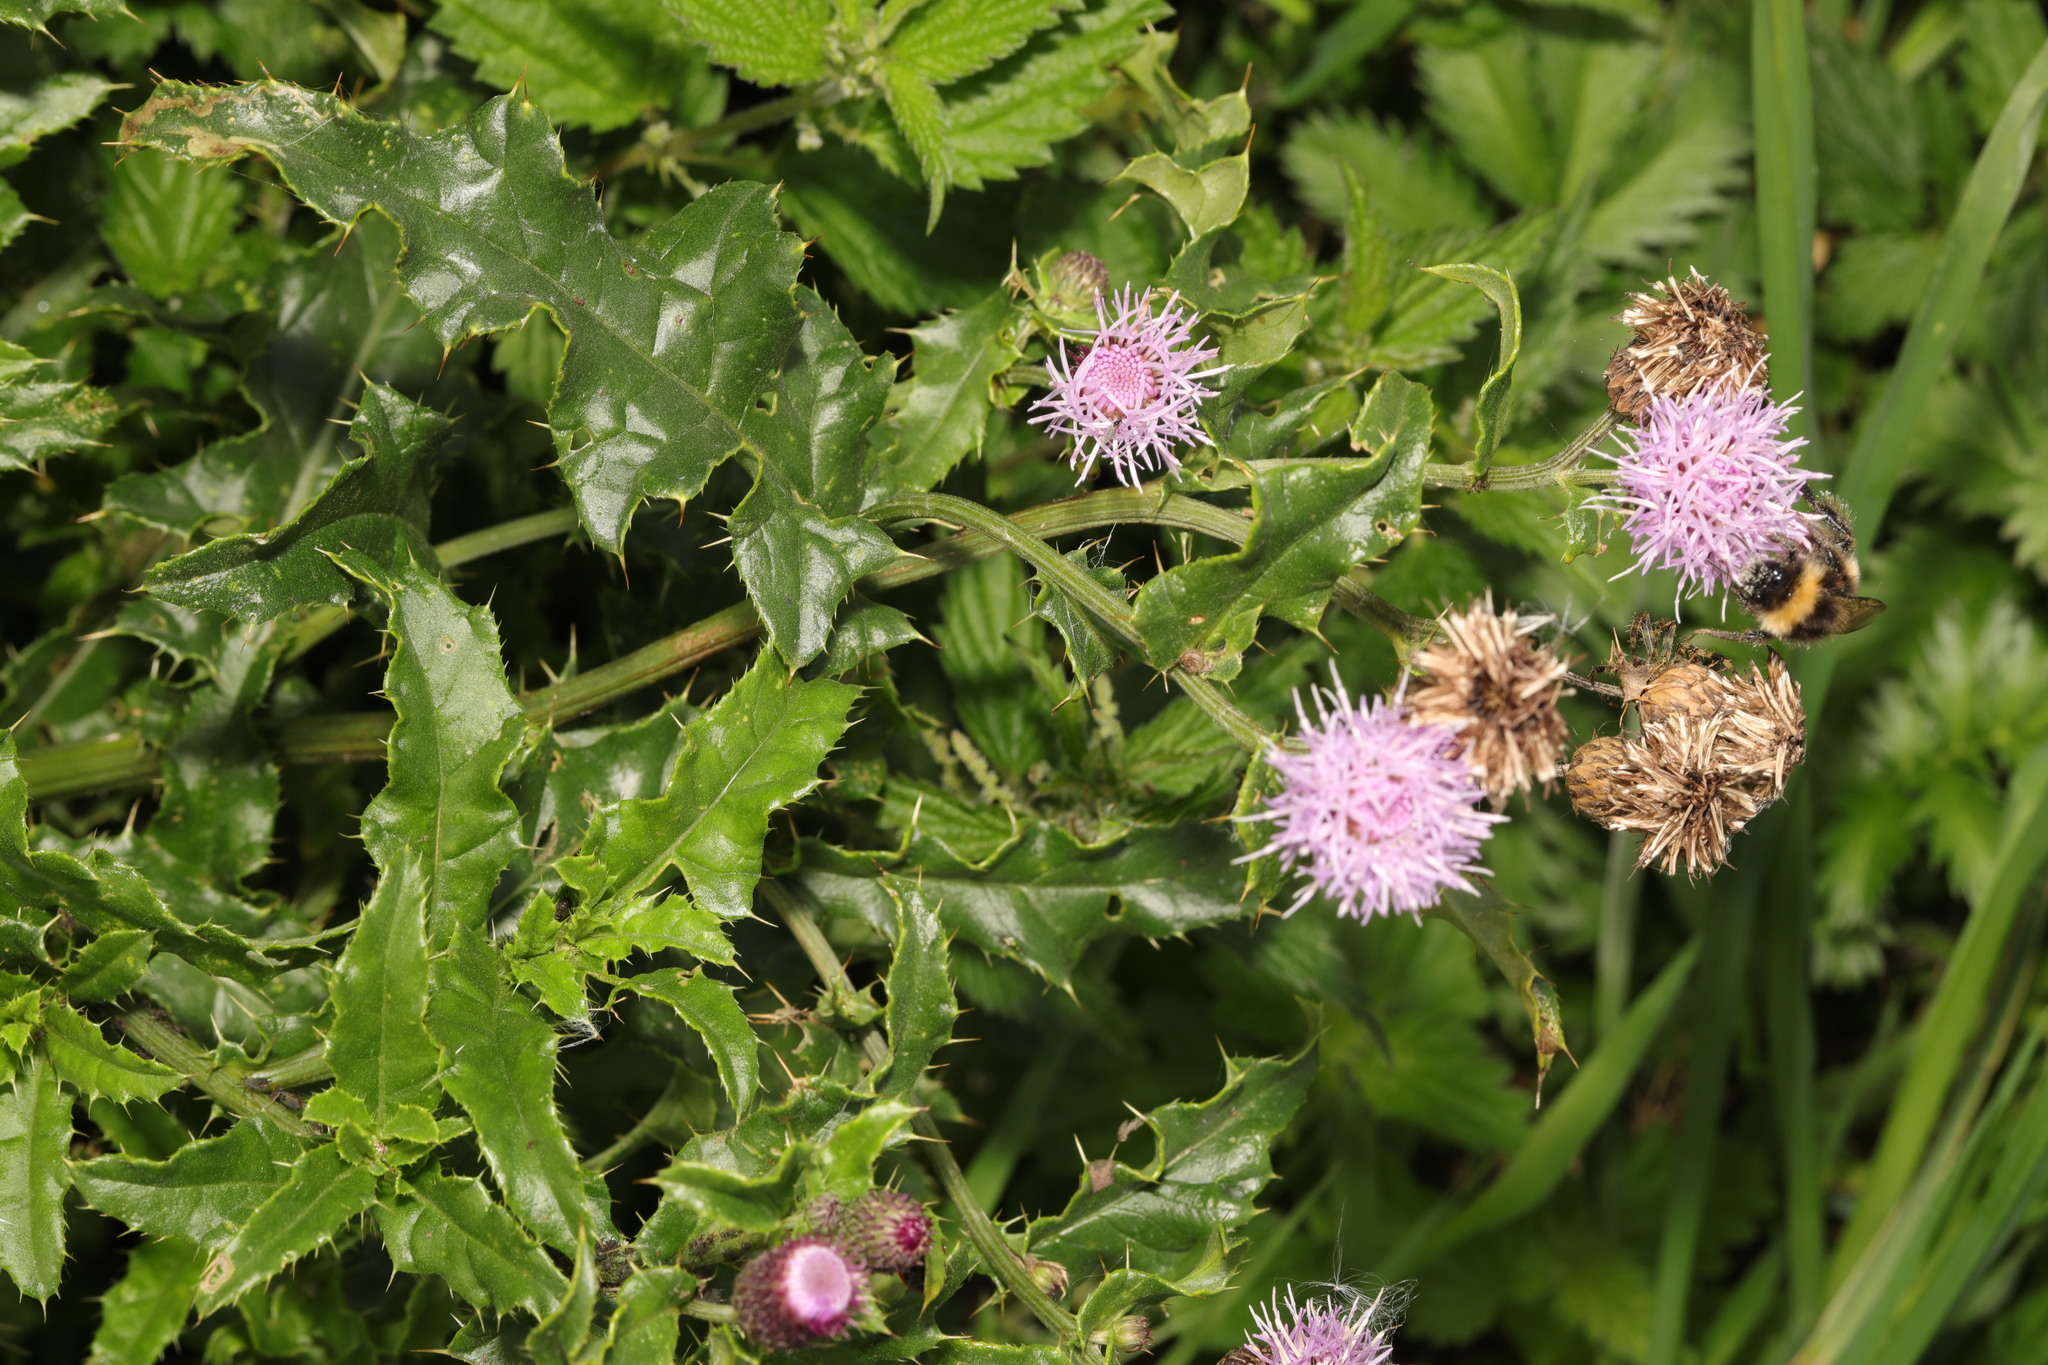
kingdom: Plantae
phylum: Tracheophyta
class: Magnoliopsida
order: Asterales
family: Asteraceae
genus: Cirsium
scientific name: Cirsium arvense
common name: Creeping thistle
